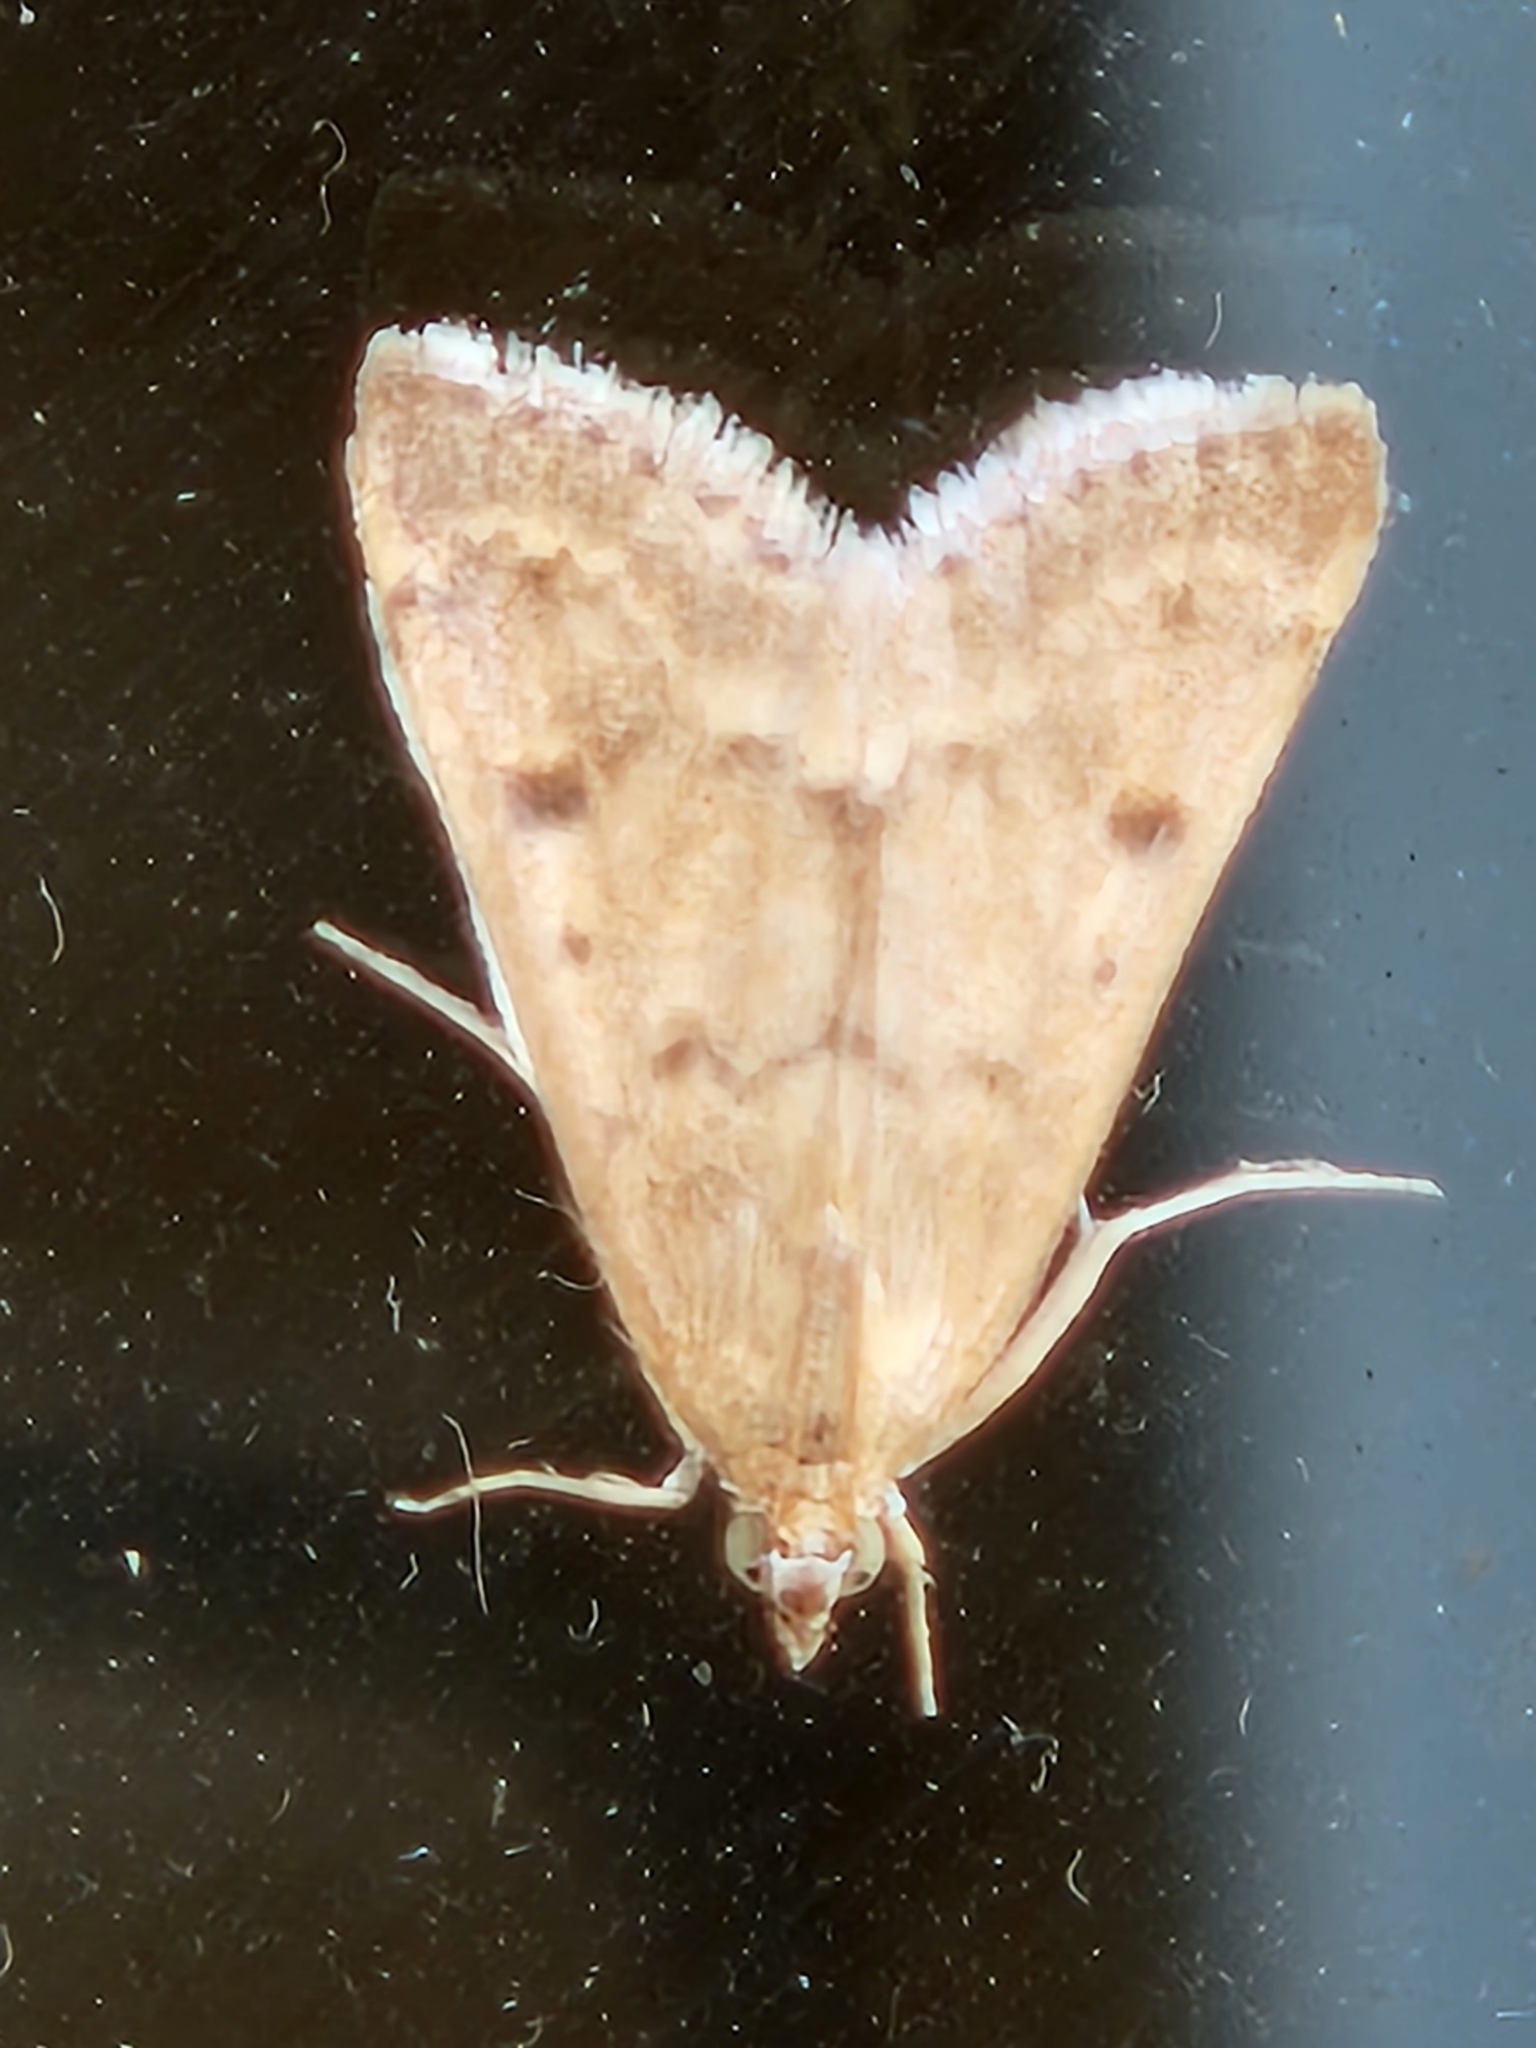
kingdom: Animalia
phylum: Arthropoda
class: Insecta
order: Lepidoptera
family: Crambidae
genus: Achyra
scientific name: Achyra rantalis
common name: Garden webworm
